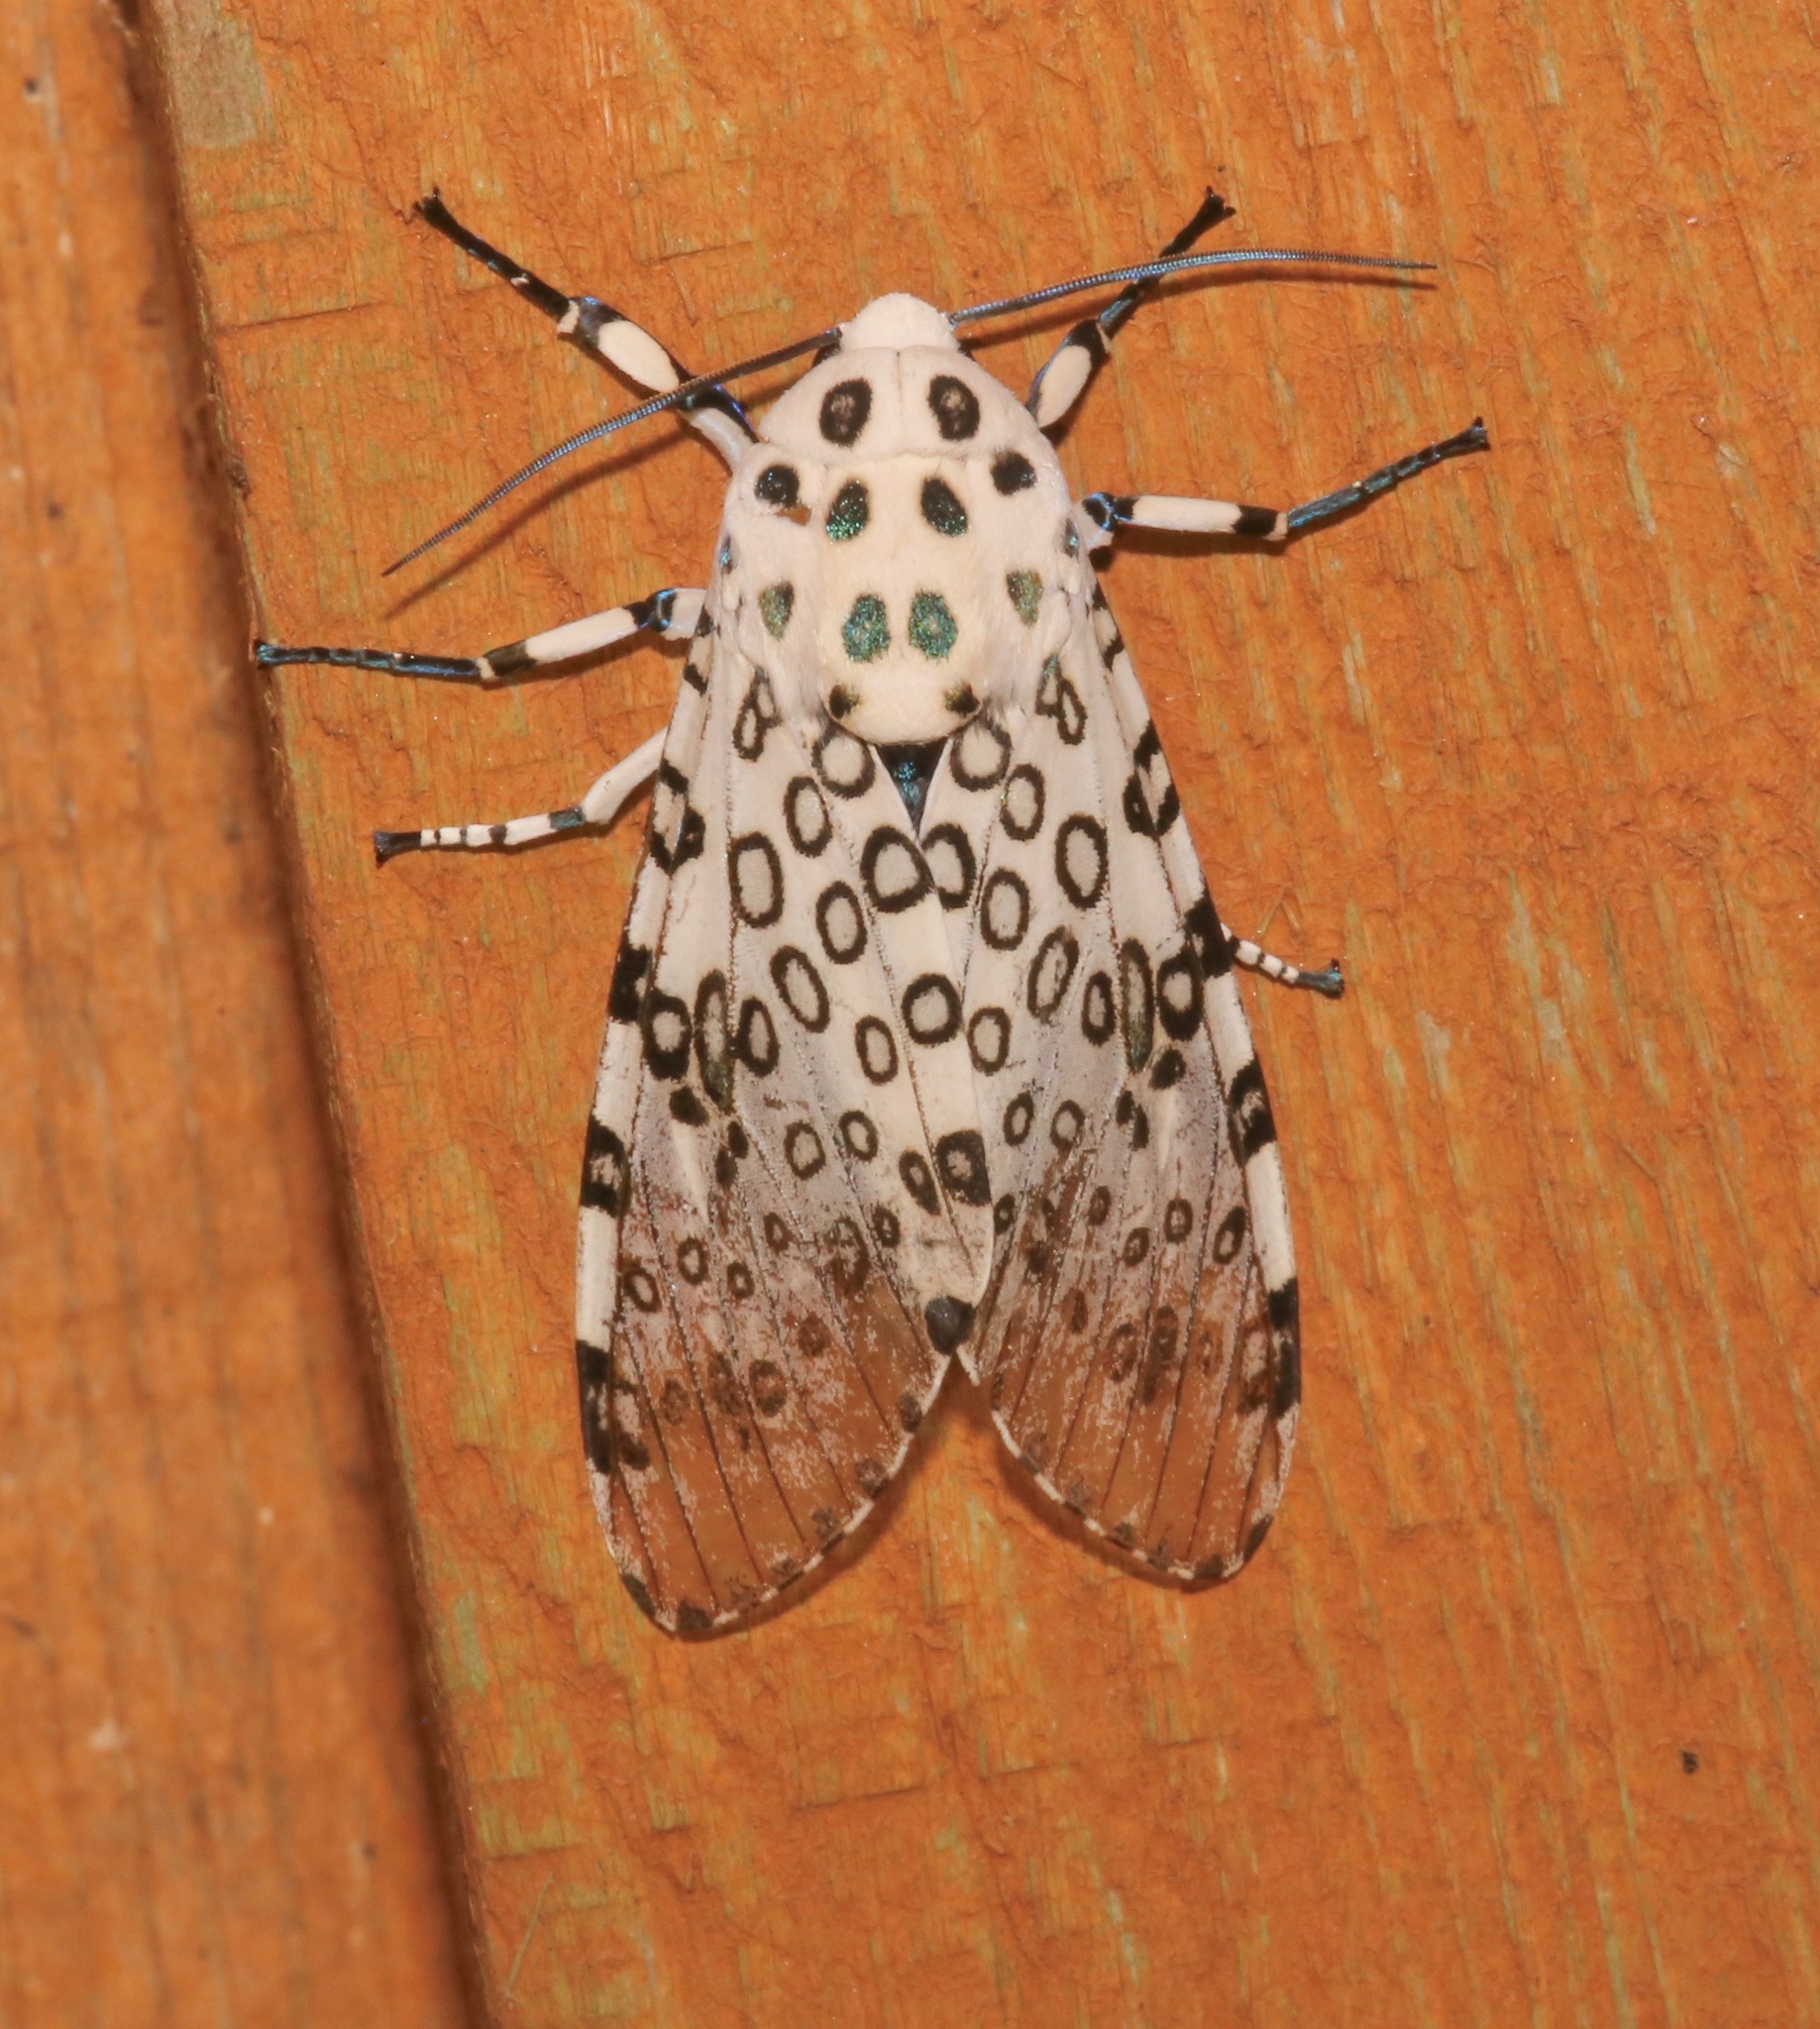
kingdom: Animalia
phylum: Arthropoda
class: Insecta
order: Lepidoptera
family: Erebidae
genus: Hypercompe
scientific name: Hypercompe scribonia
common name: Giant leopard moth
